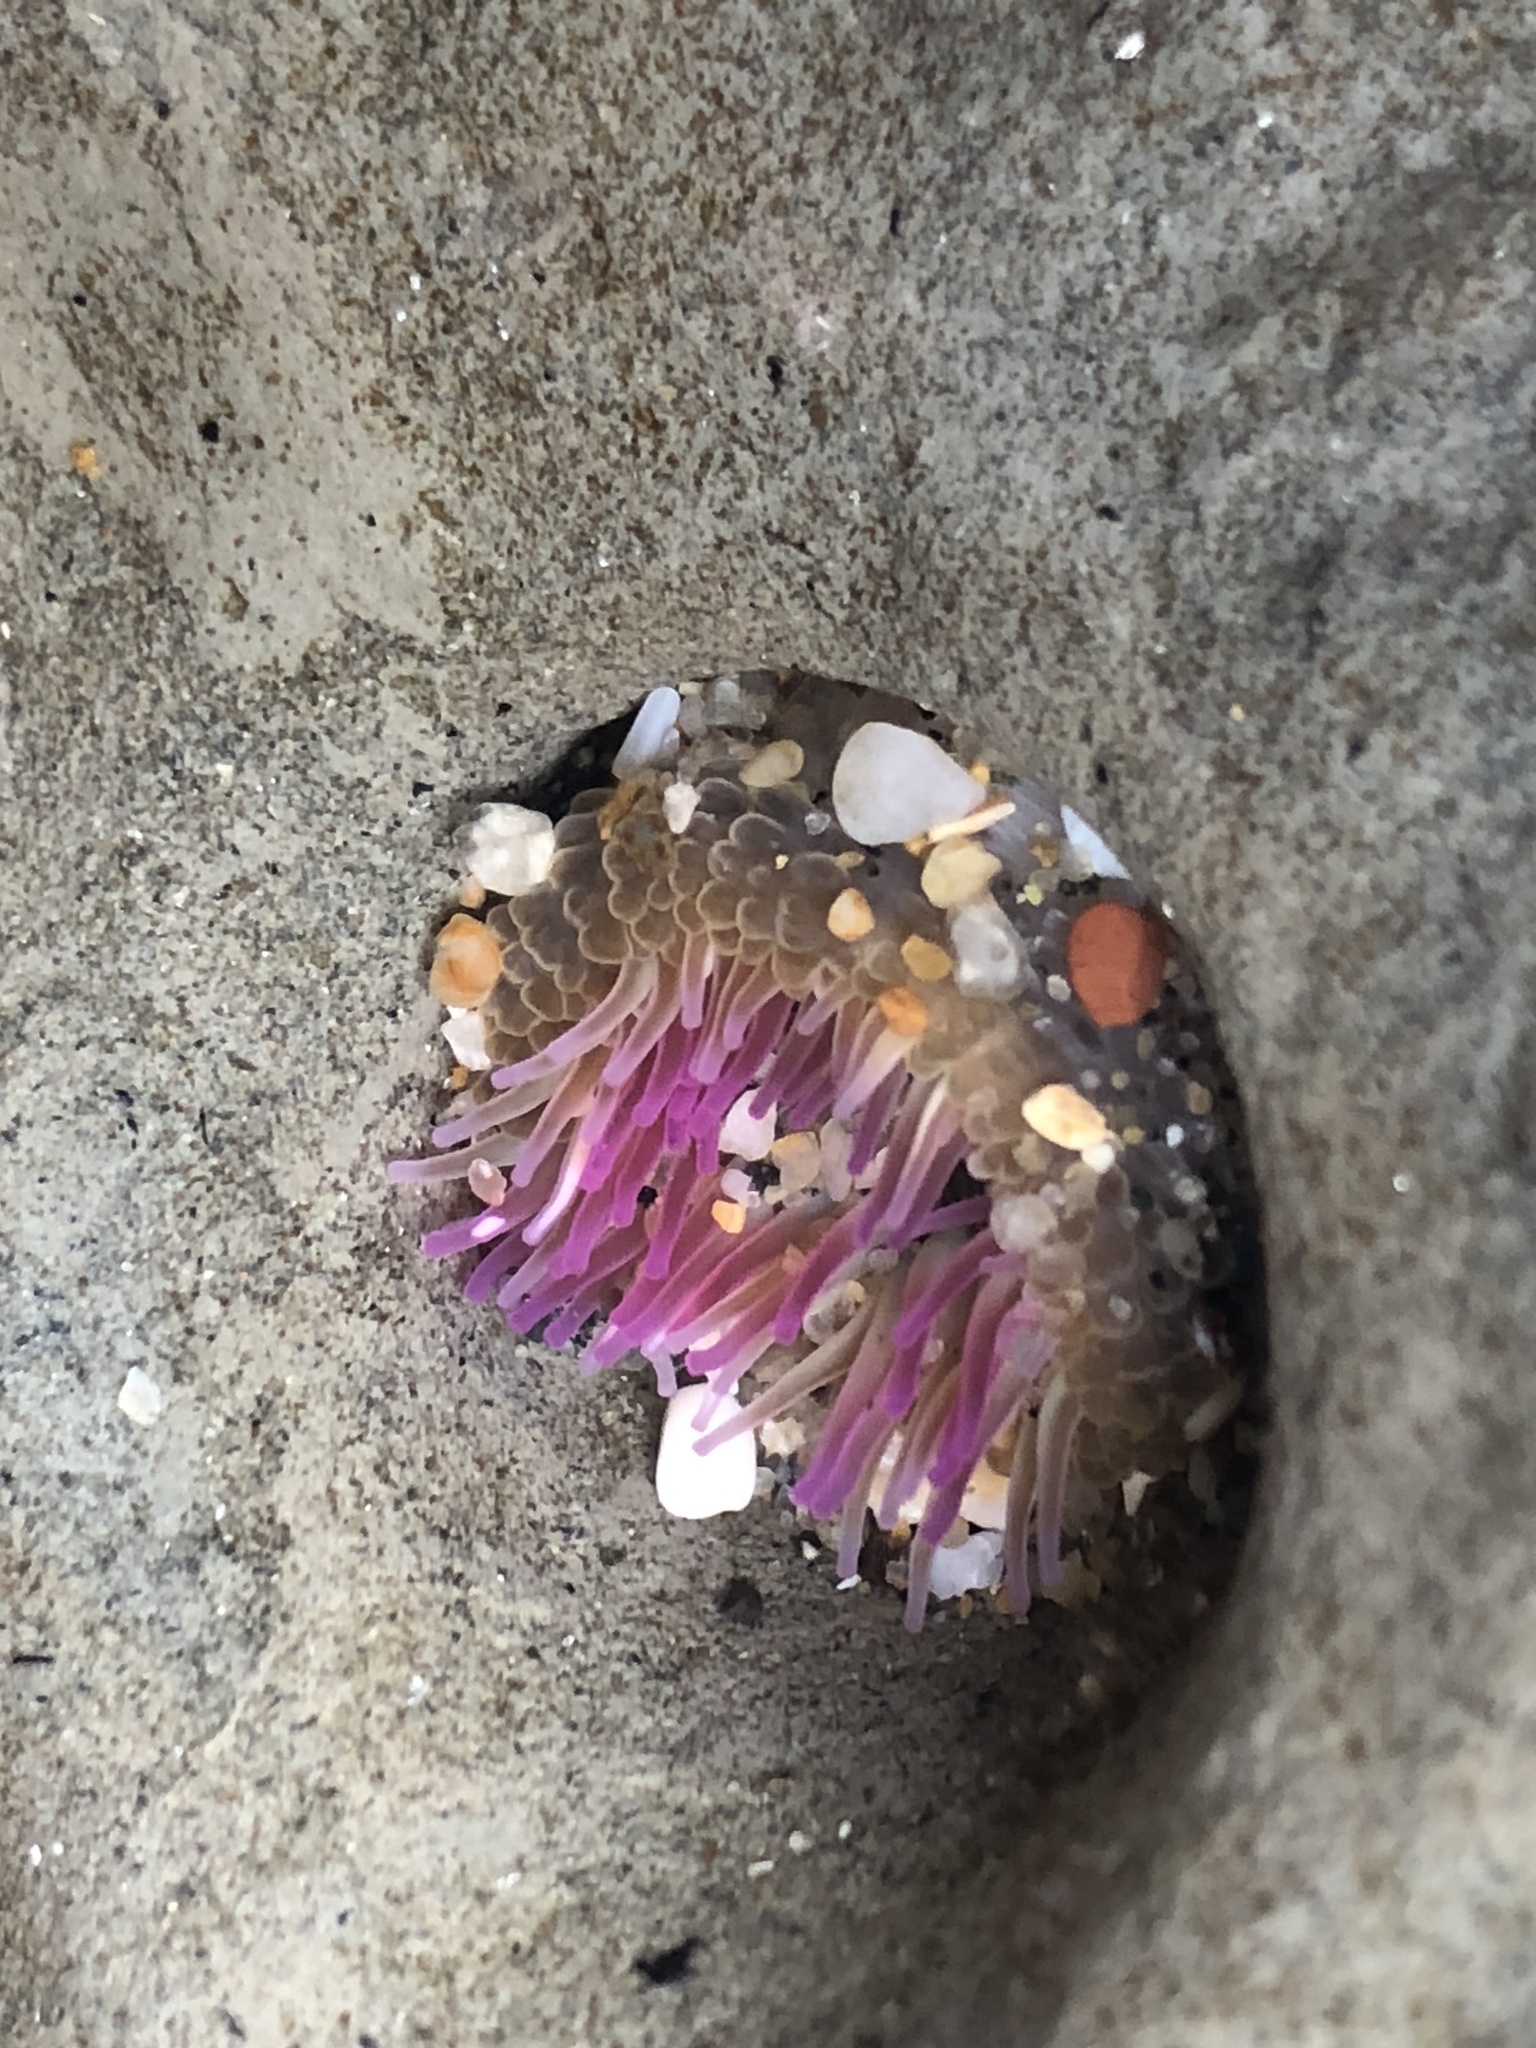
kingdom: Animalia
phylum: Cnidaria
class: Anthozoa
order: Actiniaria
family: Actiniidae
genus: Anthopleura
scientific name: Anthopleura artemisia
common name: Buried sea anemone
